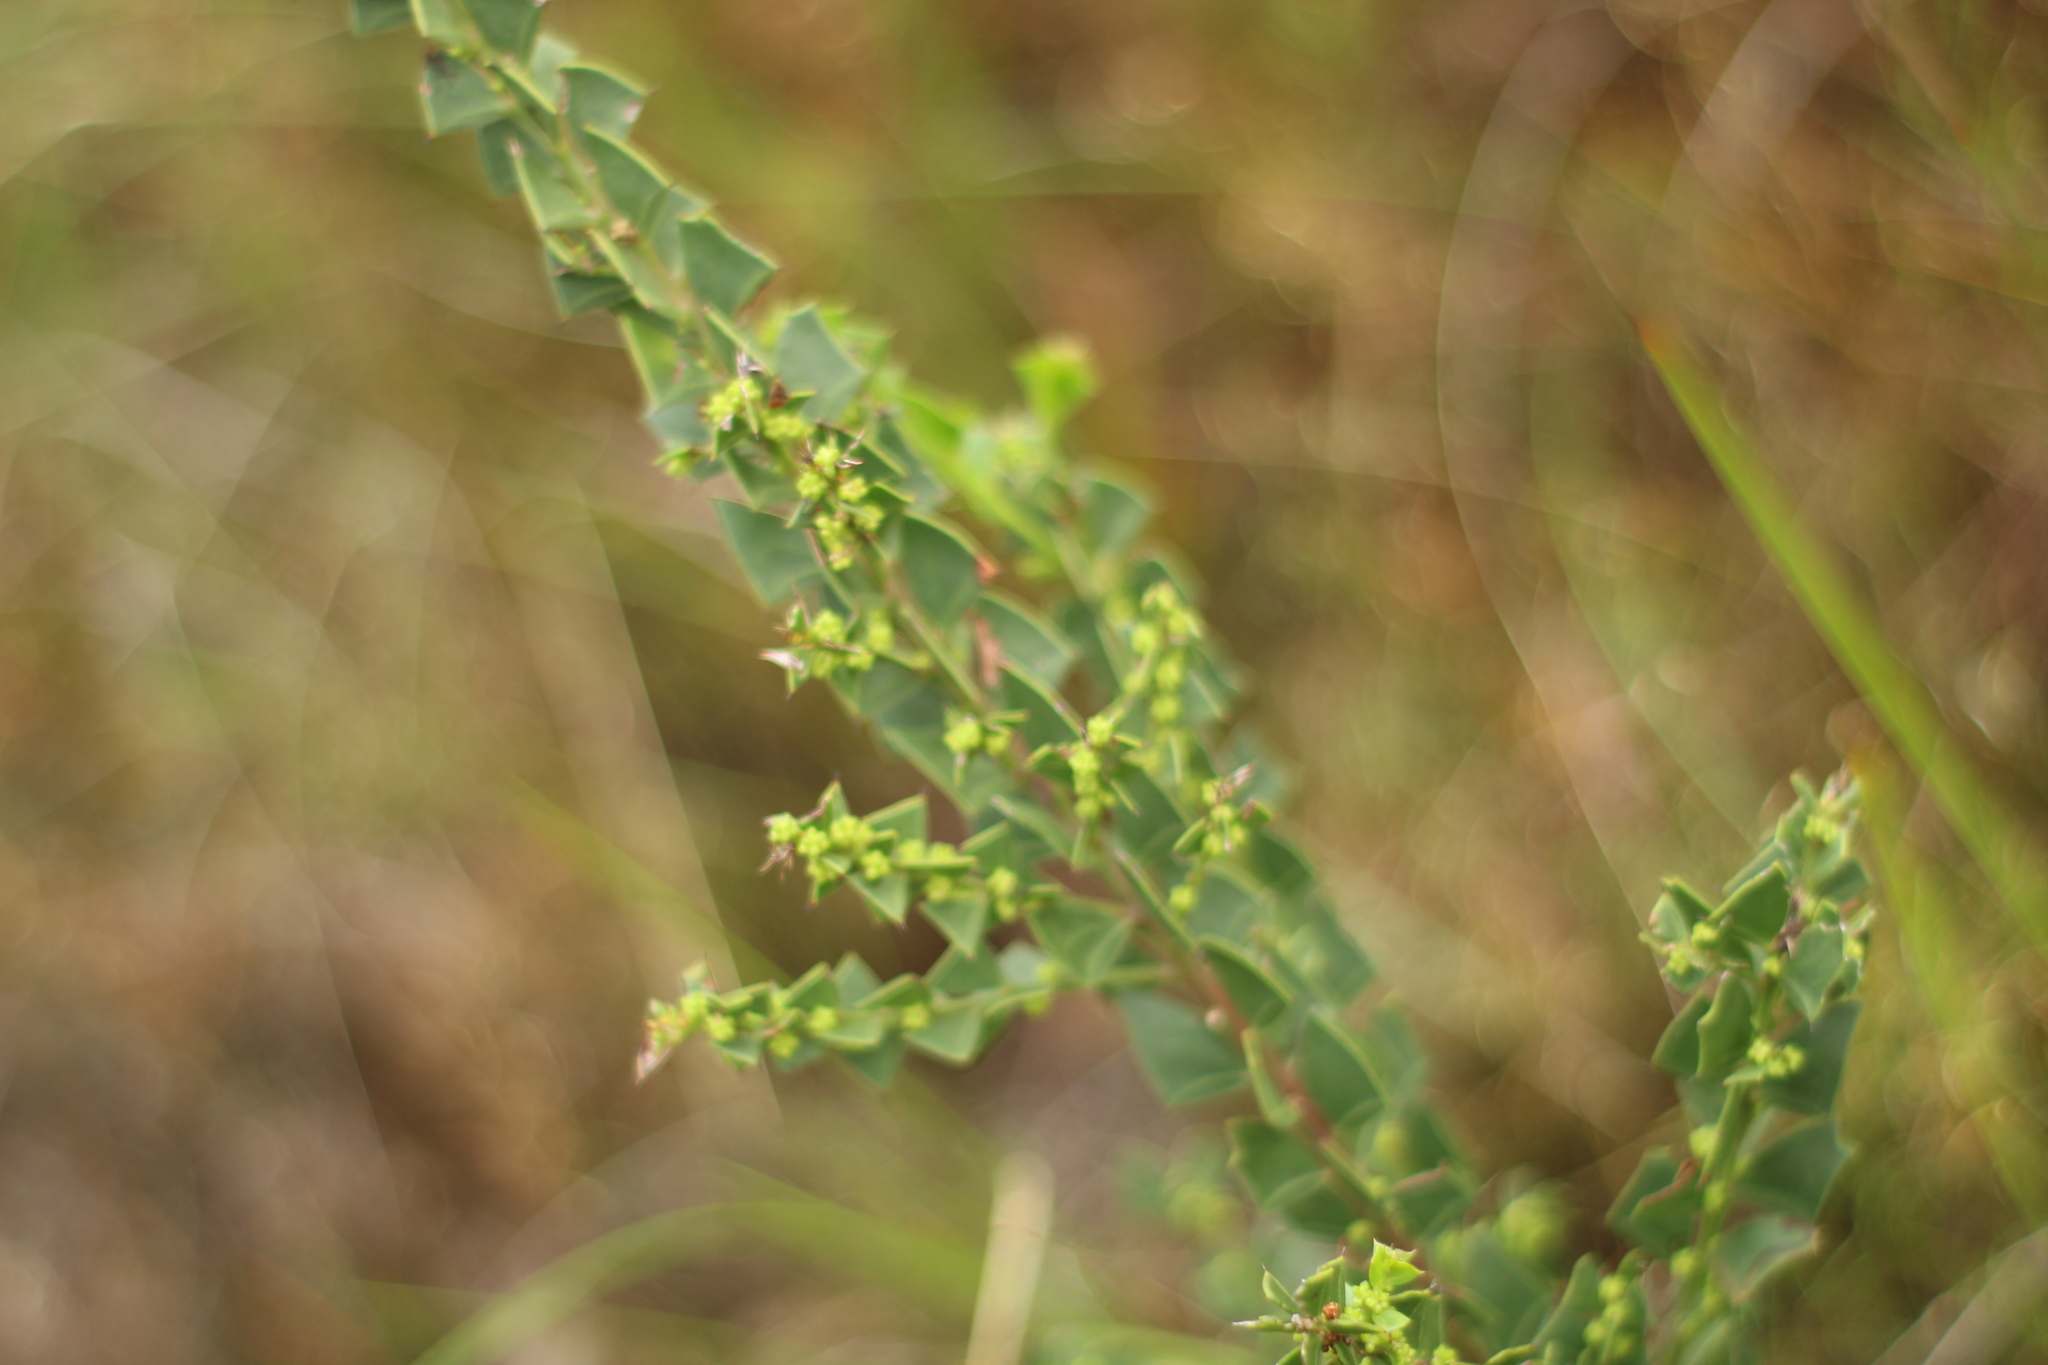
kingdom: Plantae
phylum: Tracheophyta
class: Magnoliopsida
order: Fabales
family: Fabaceae
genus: Acacia
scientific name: Acacia trapezoidea
